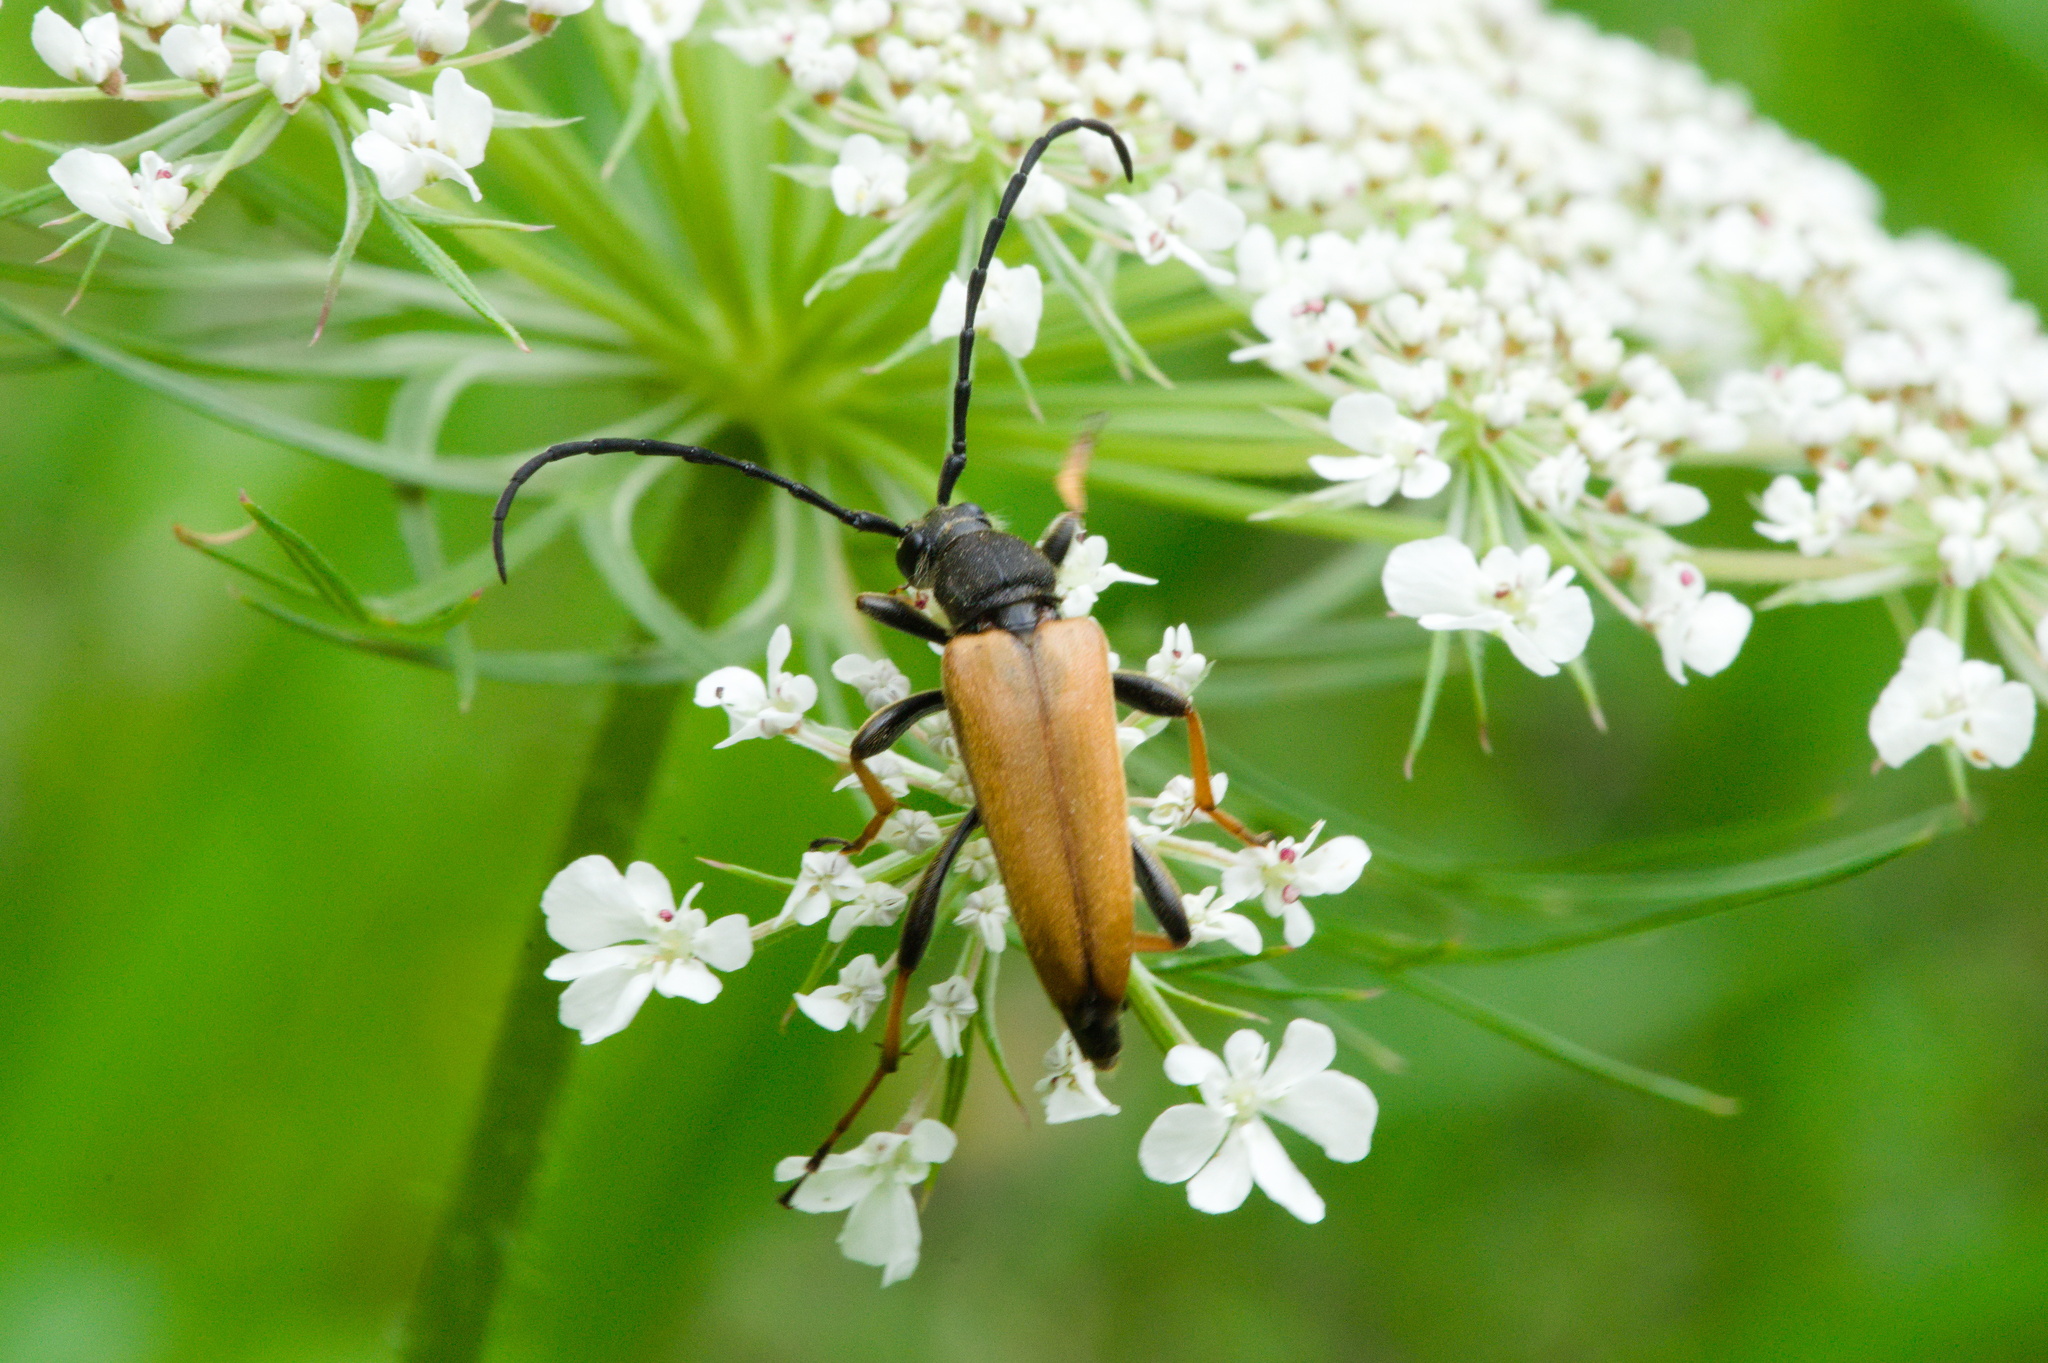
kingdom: Animalia
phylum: Arthropoda
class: Insecta
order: Coleoptera
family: Cerambycidae
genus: Stictoleptura
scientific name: Stictoleptura rubra
